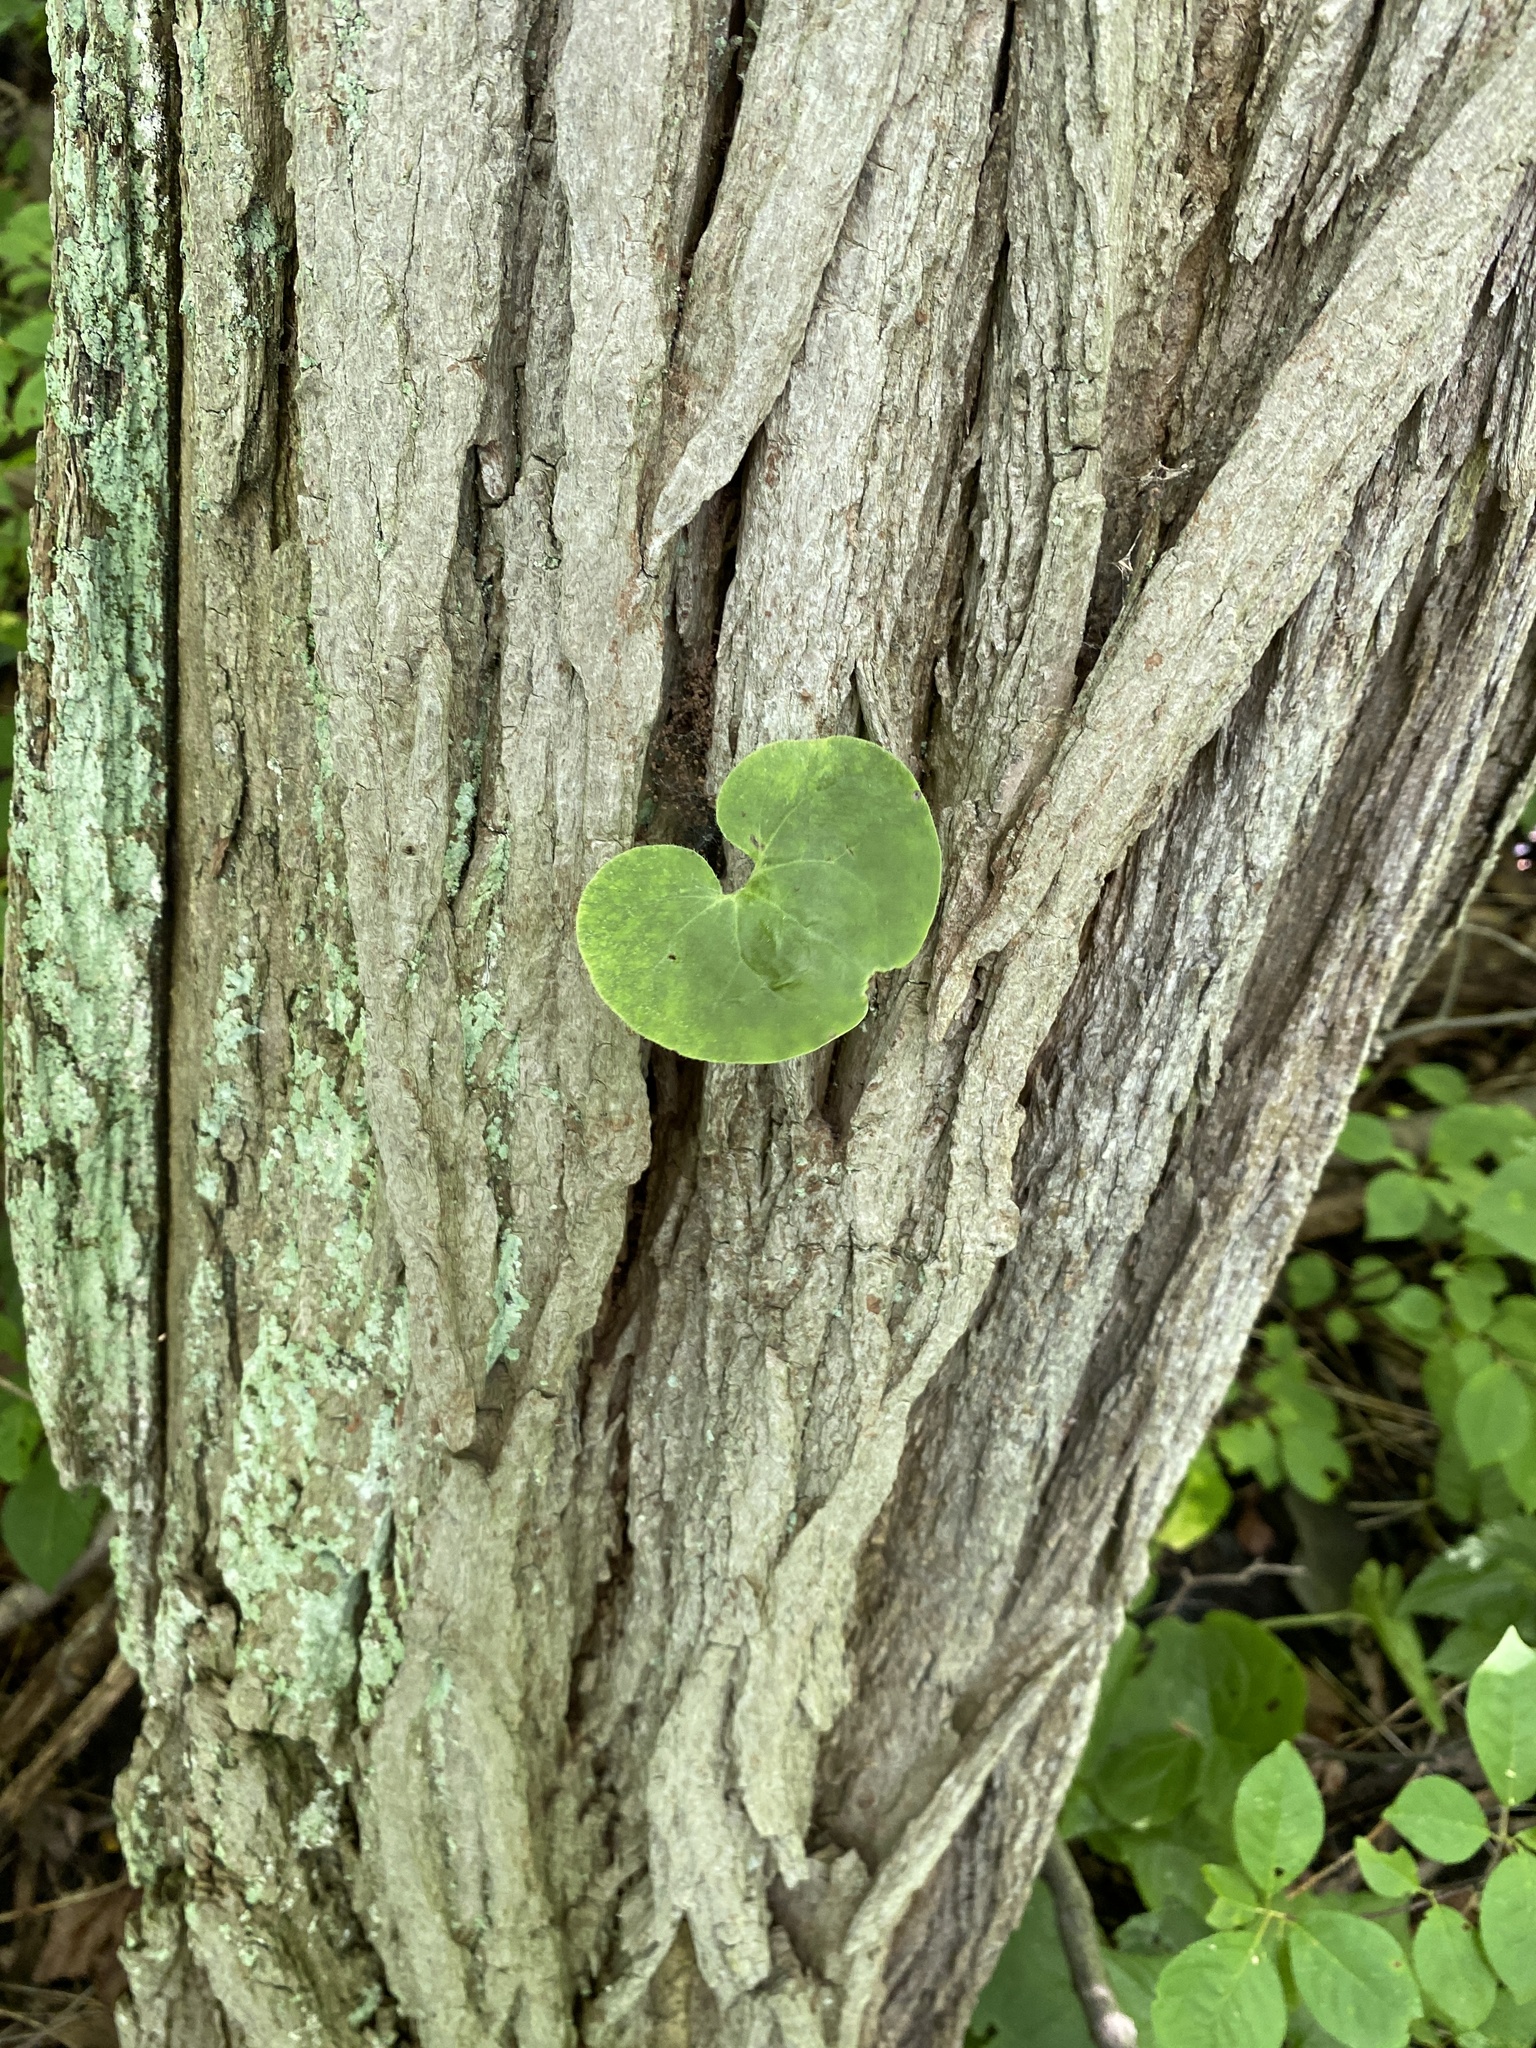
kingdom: Plantae
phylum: Tracheophyta
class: Magnoliopsida
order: Piperales
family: Aristolochiaceae
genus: Asarum
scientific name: Asarum canadense
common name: Wild ginger
